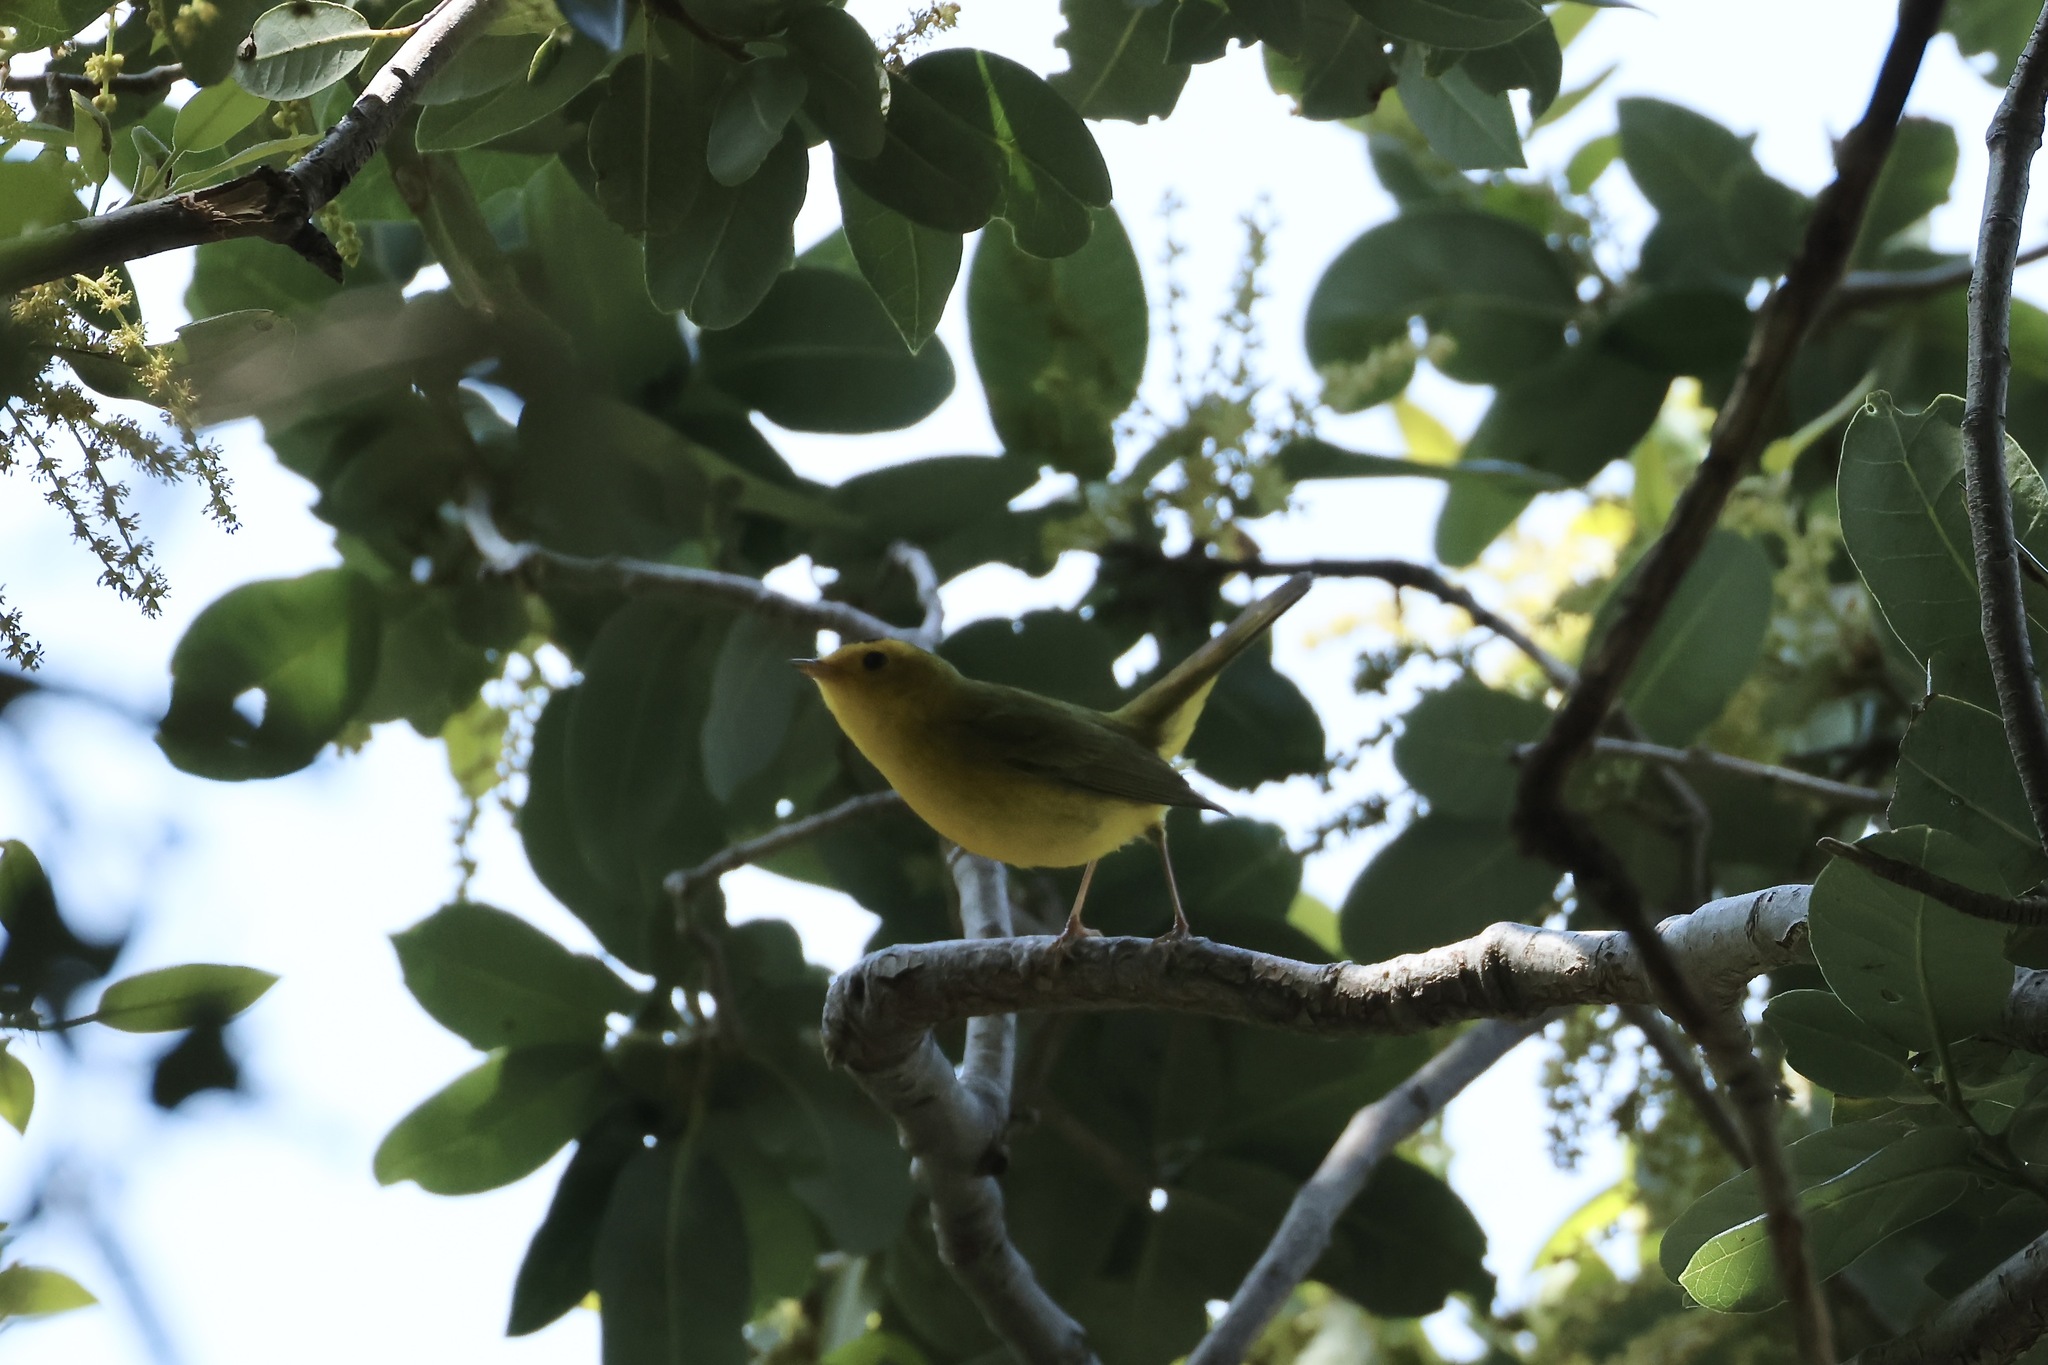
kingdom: Animalia
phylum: Chordata
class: Aves
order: Passeriformes
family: Parulidae
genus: Cardellina
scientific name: Cardellina pusilla
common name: Wilson's warbler
